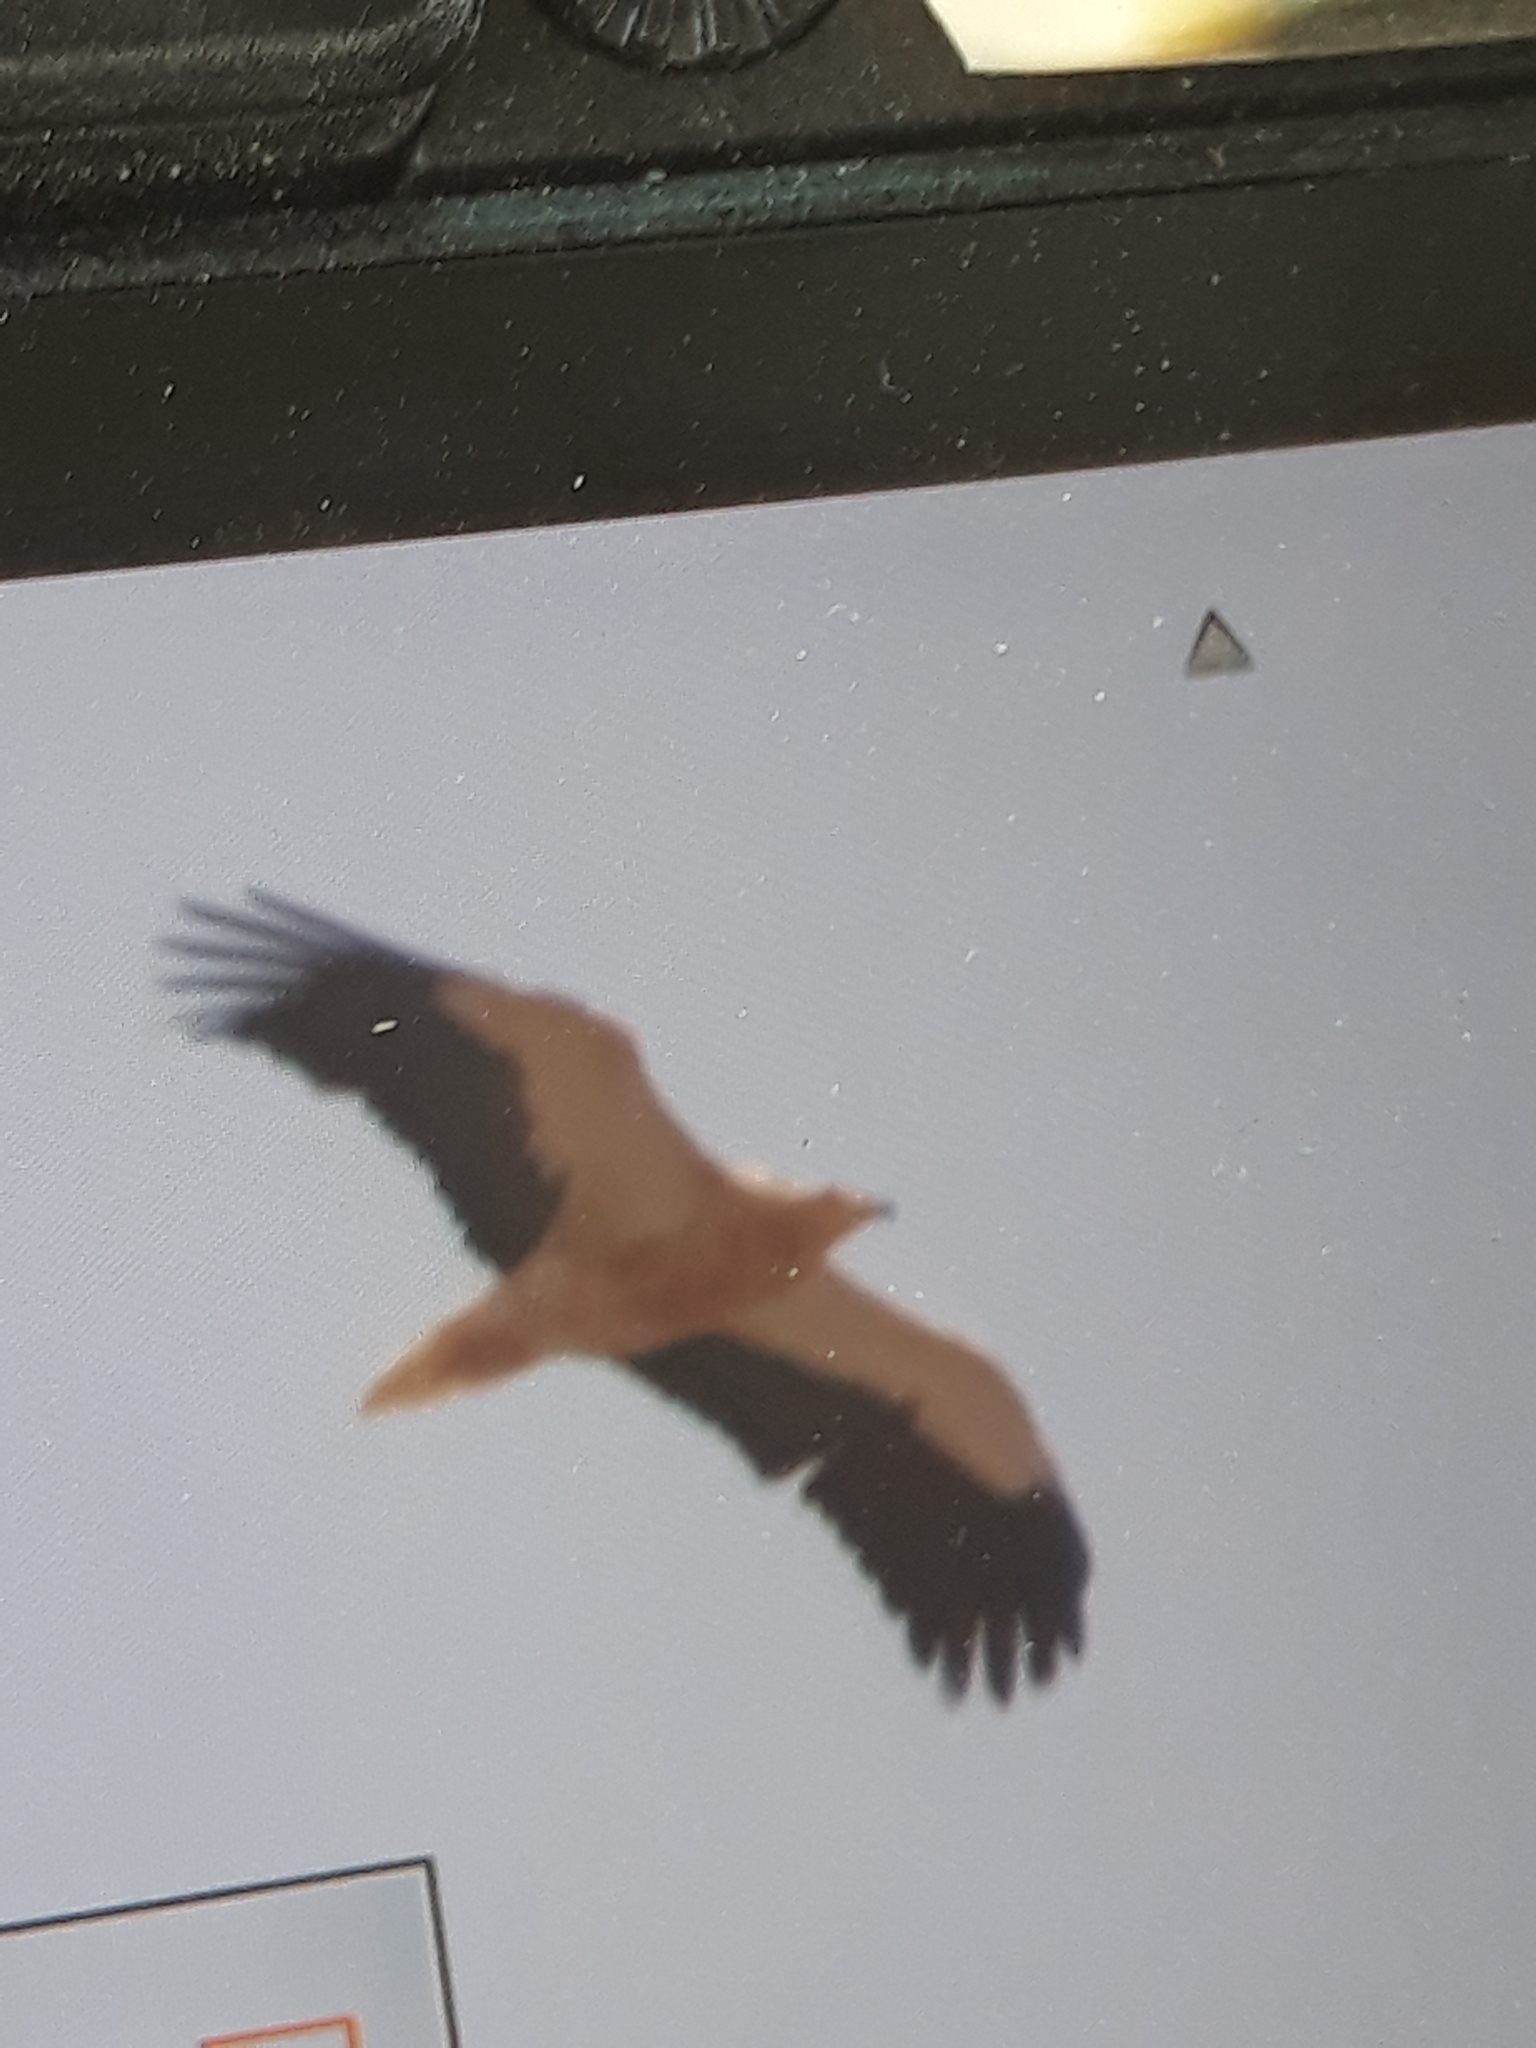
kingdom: Animalia
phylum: Chordata
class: Aves
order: Accipitriformes
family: Accipitridae
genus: Neophron
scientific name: Neophron percnopterus
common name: Egyptian vulture
